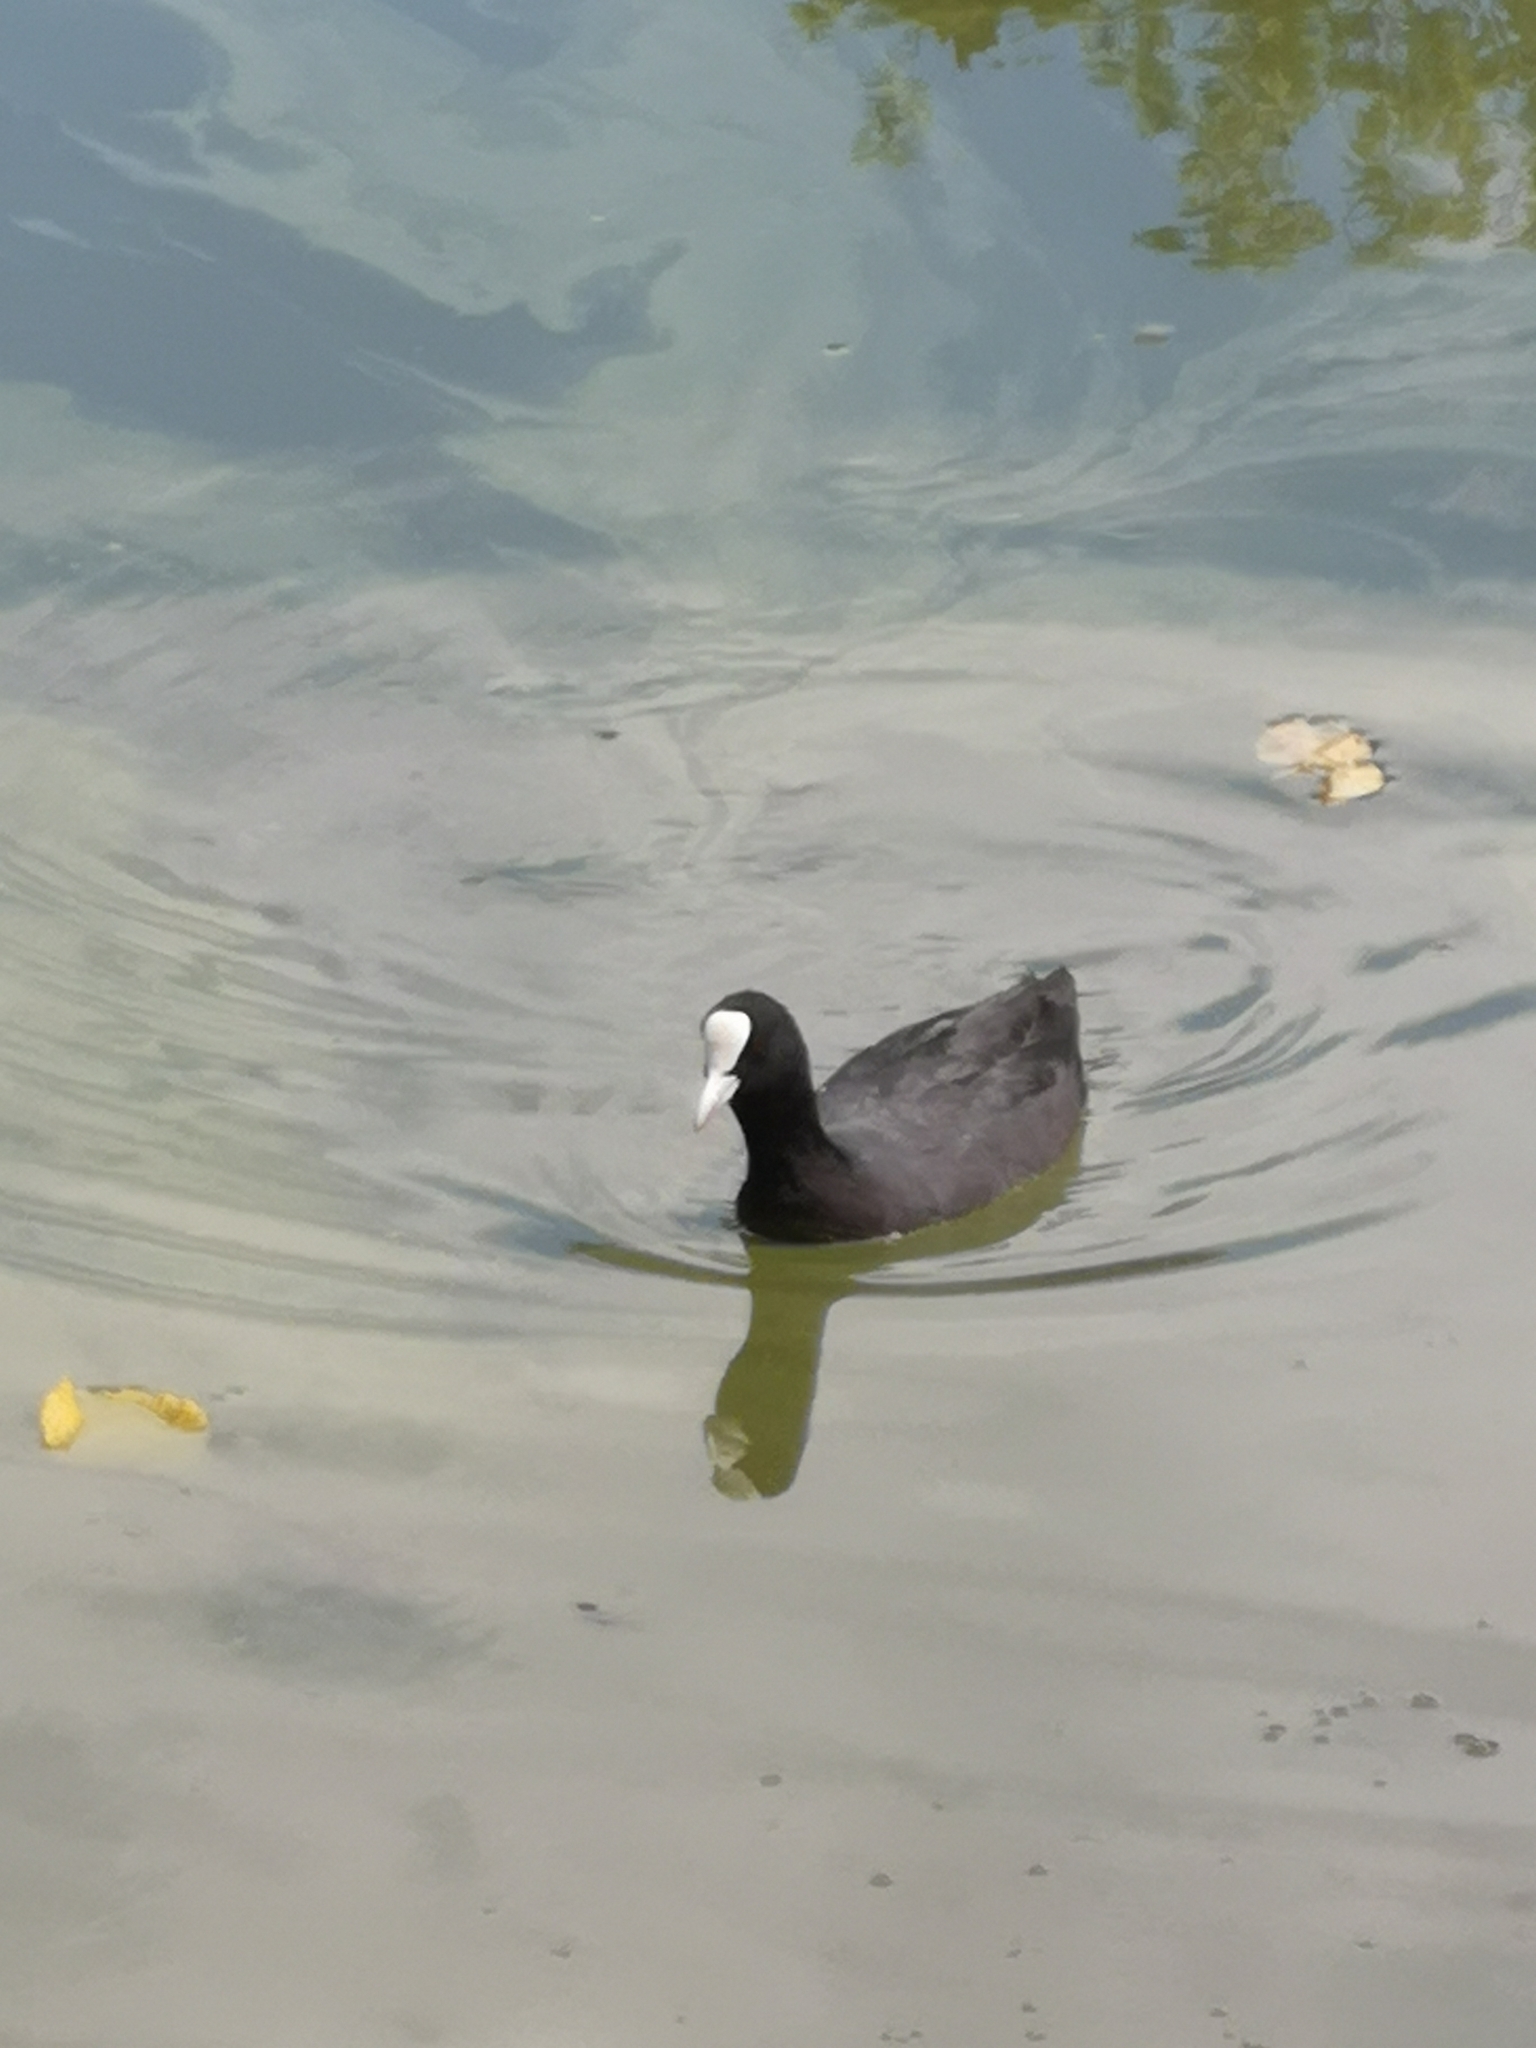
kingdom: Animalia
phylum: Chordata
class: Aves
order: Gruiformes
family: Rallidae
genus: Fulica
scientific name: Fulica atra
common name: Eurasian coot
